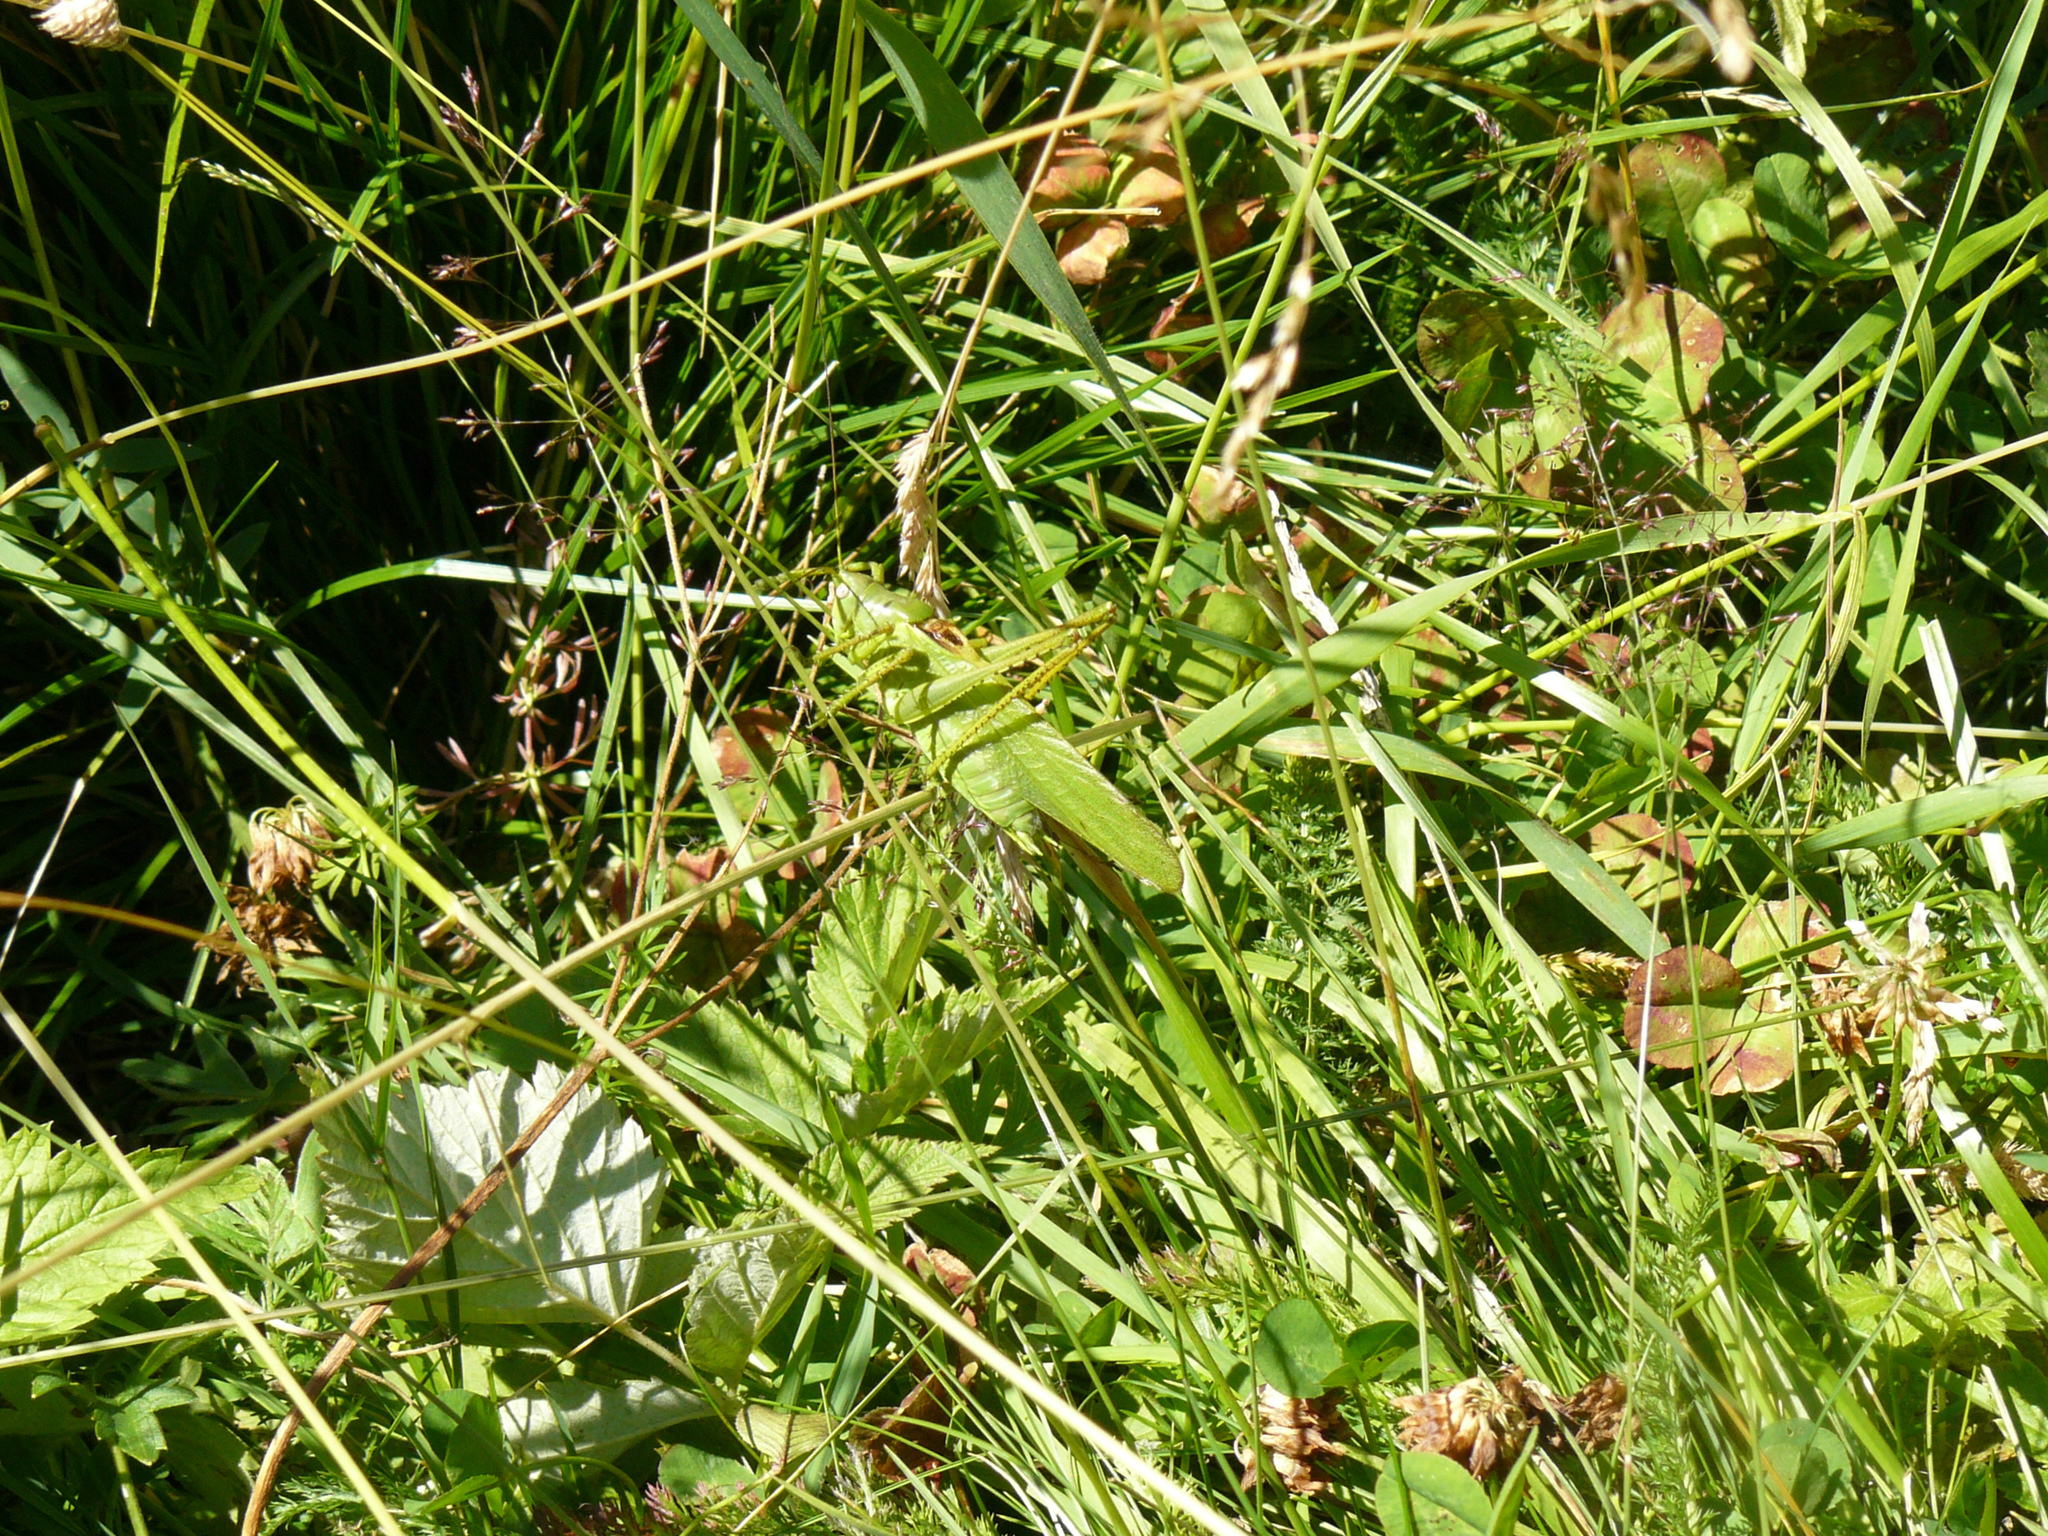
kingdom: Animalia
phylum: Arthropoda
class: Insecta
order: Orthoptera
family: Tettigoniidae
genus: Tettigonia
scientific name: Tettigonia caudata
